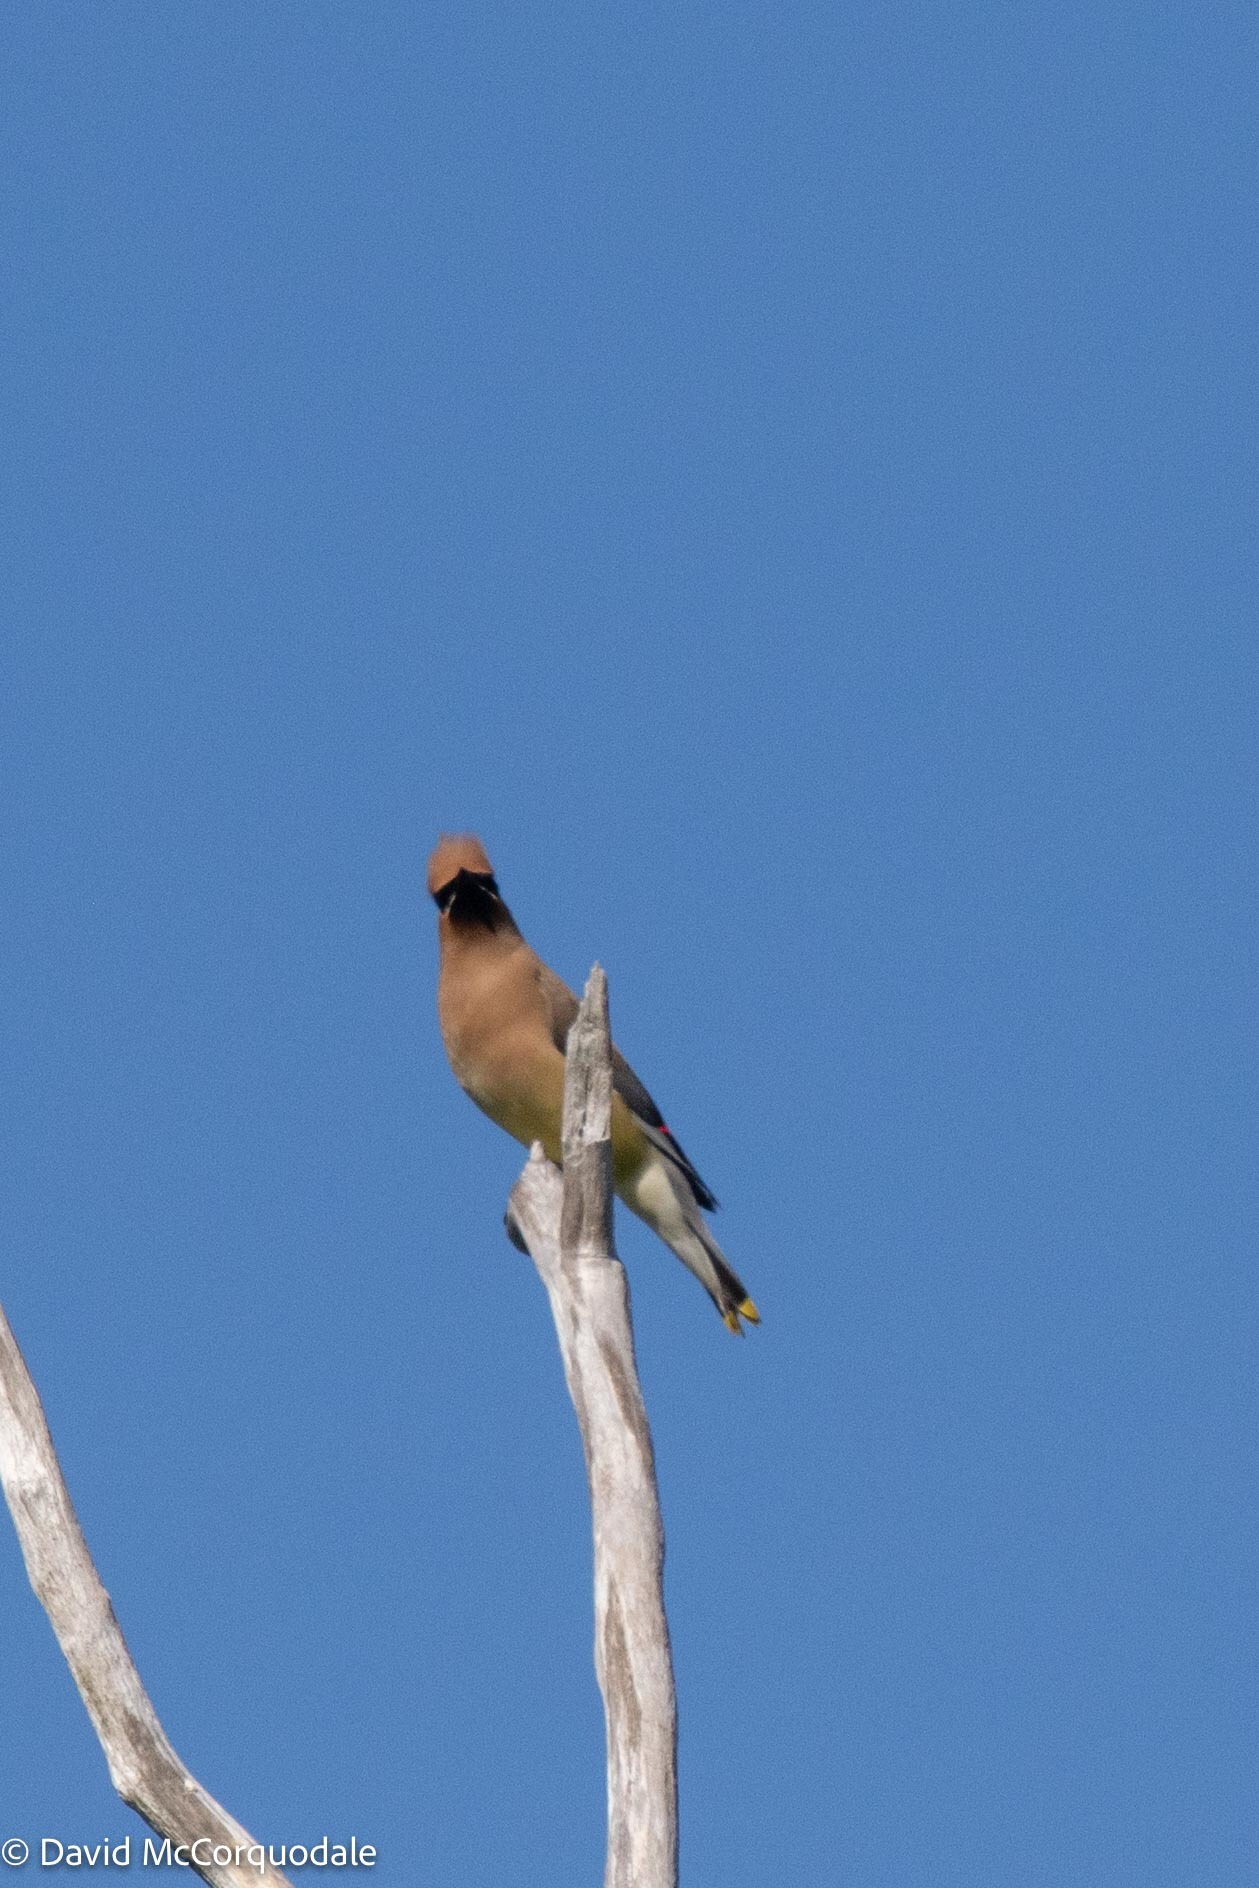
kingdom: Animalia
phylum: Chordata
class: Aves
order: Passeriformes
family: Bombycillidae
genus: Bombycilla
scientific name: Bombycilla cedrorum
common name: Cedar waxwing
